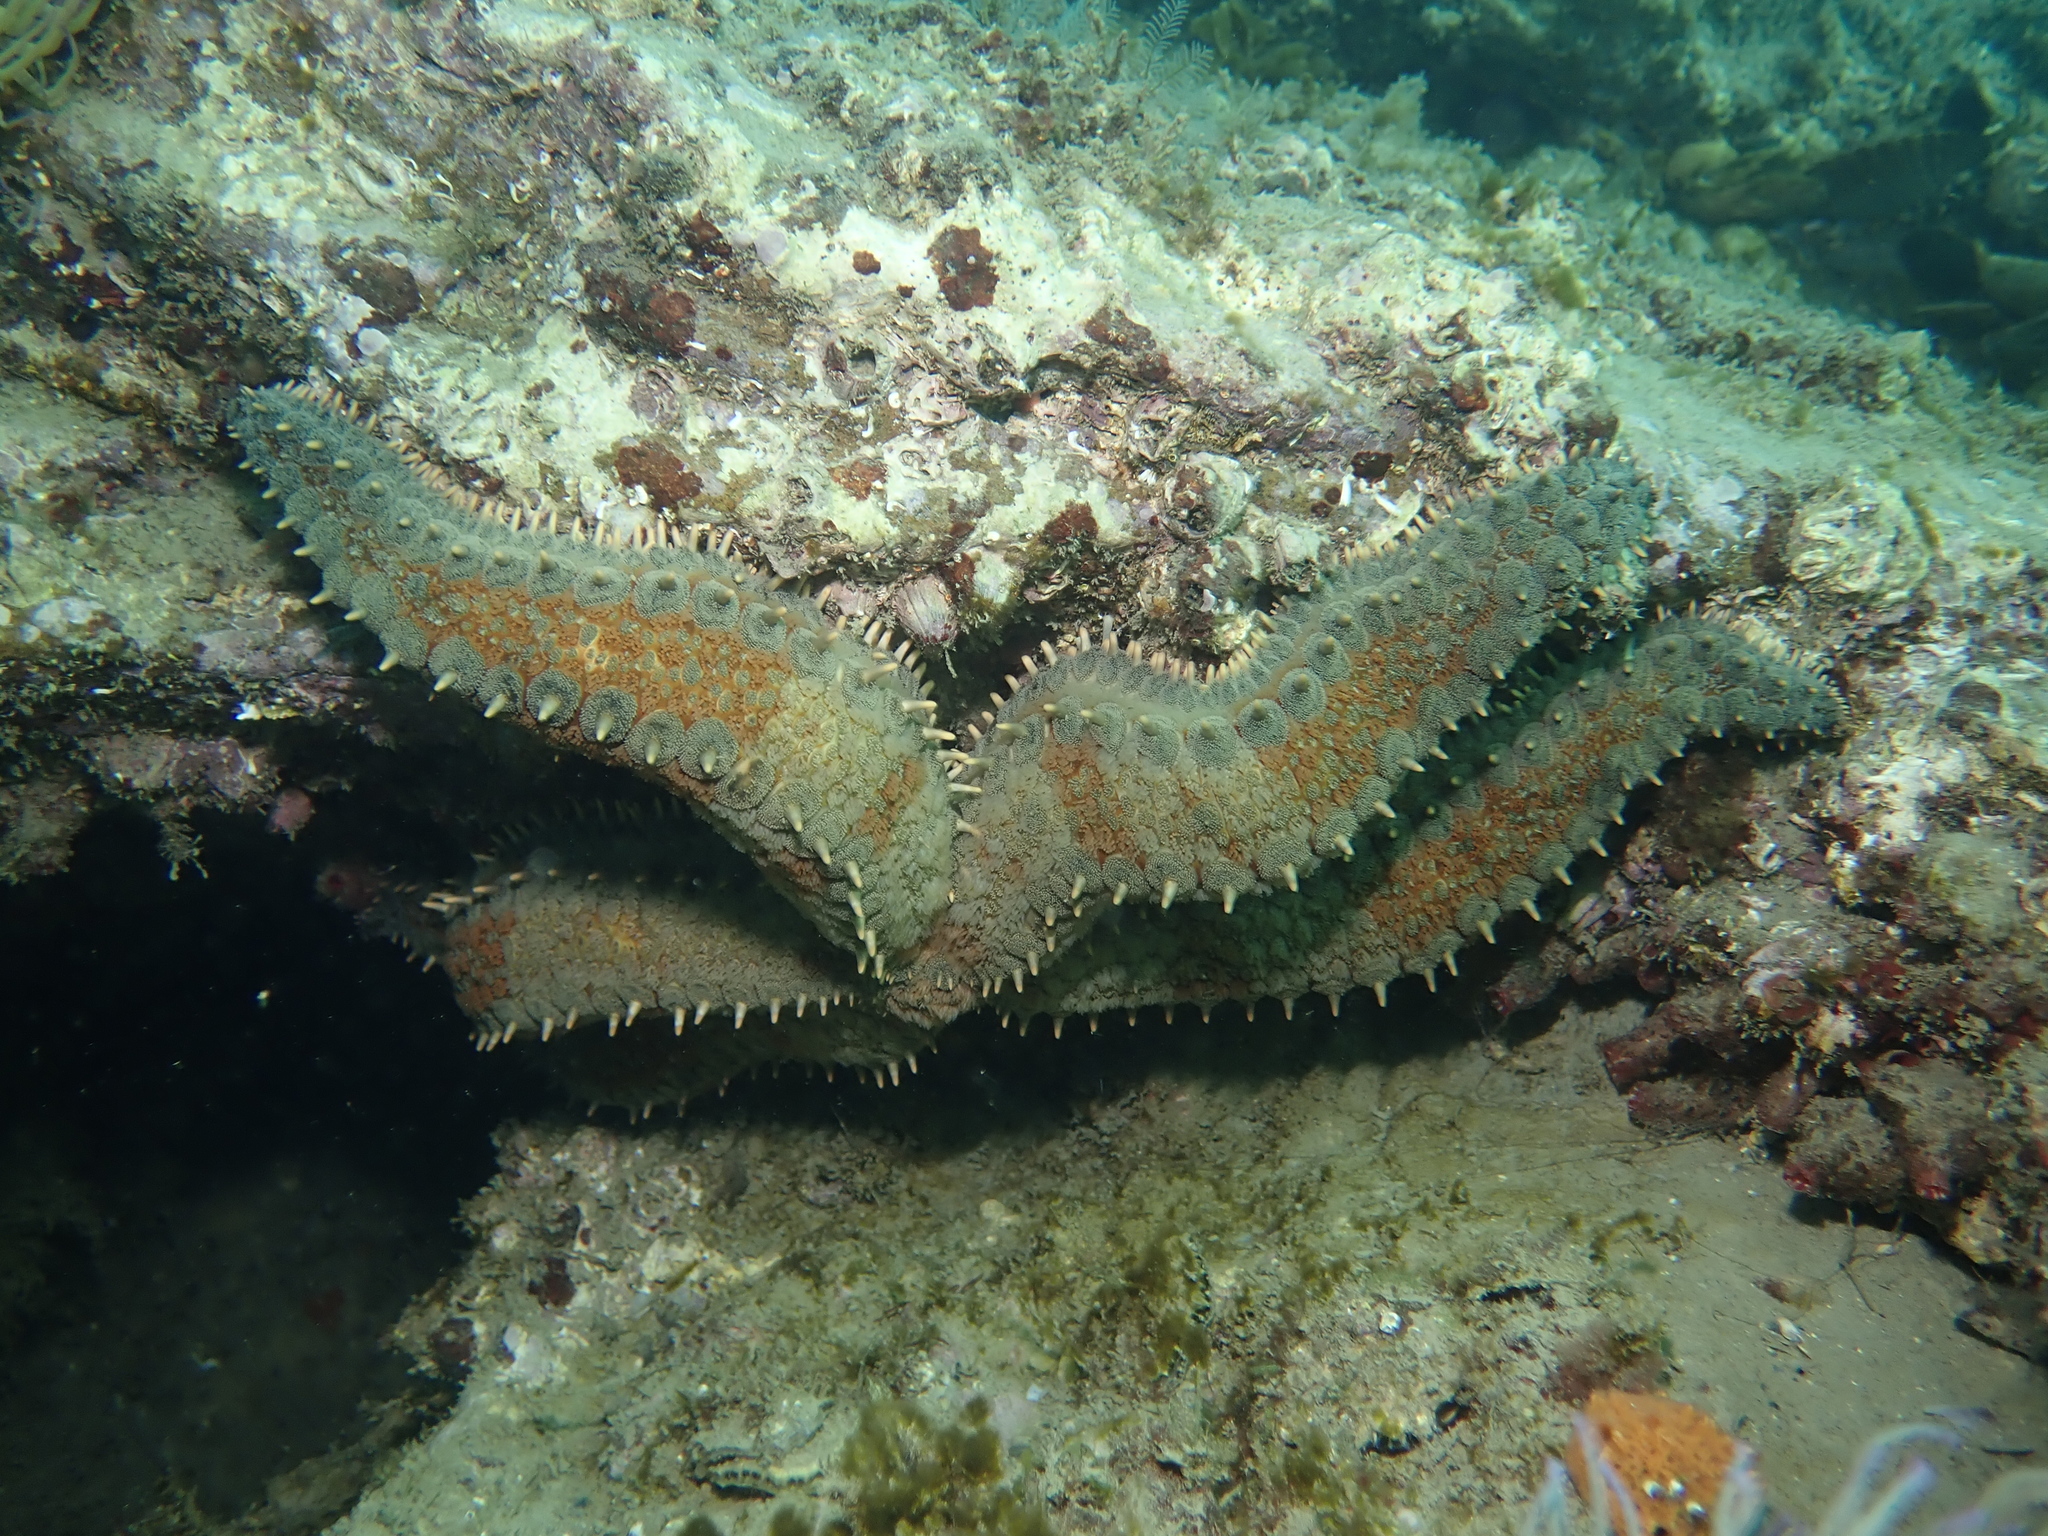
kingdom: Animalia
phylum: Echinodermata
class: Asteroidea
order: Forcipulatida
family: Asteriidae
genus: Marthasterias
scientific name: Marthasterias glacialis
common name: Spiny starfish
